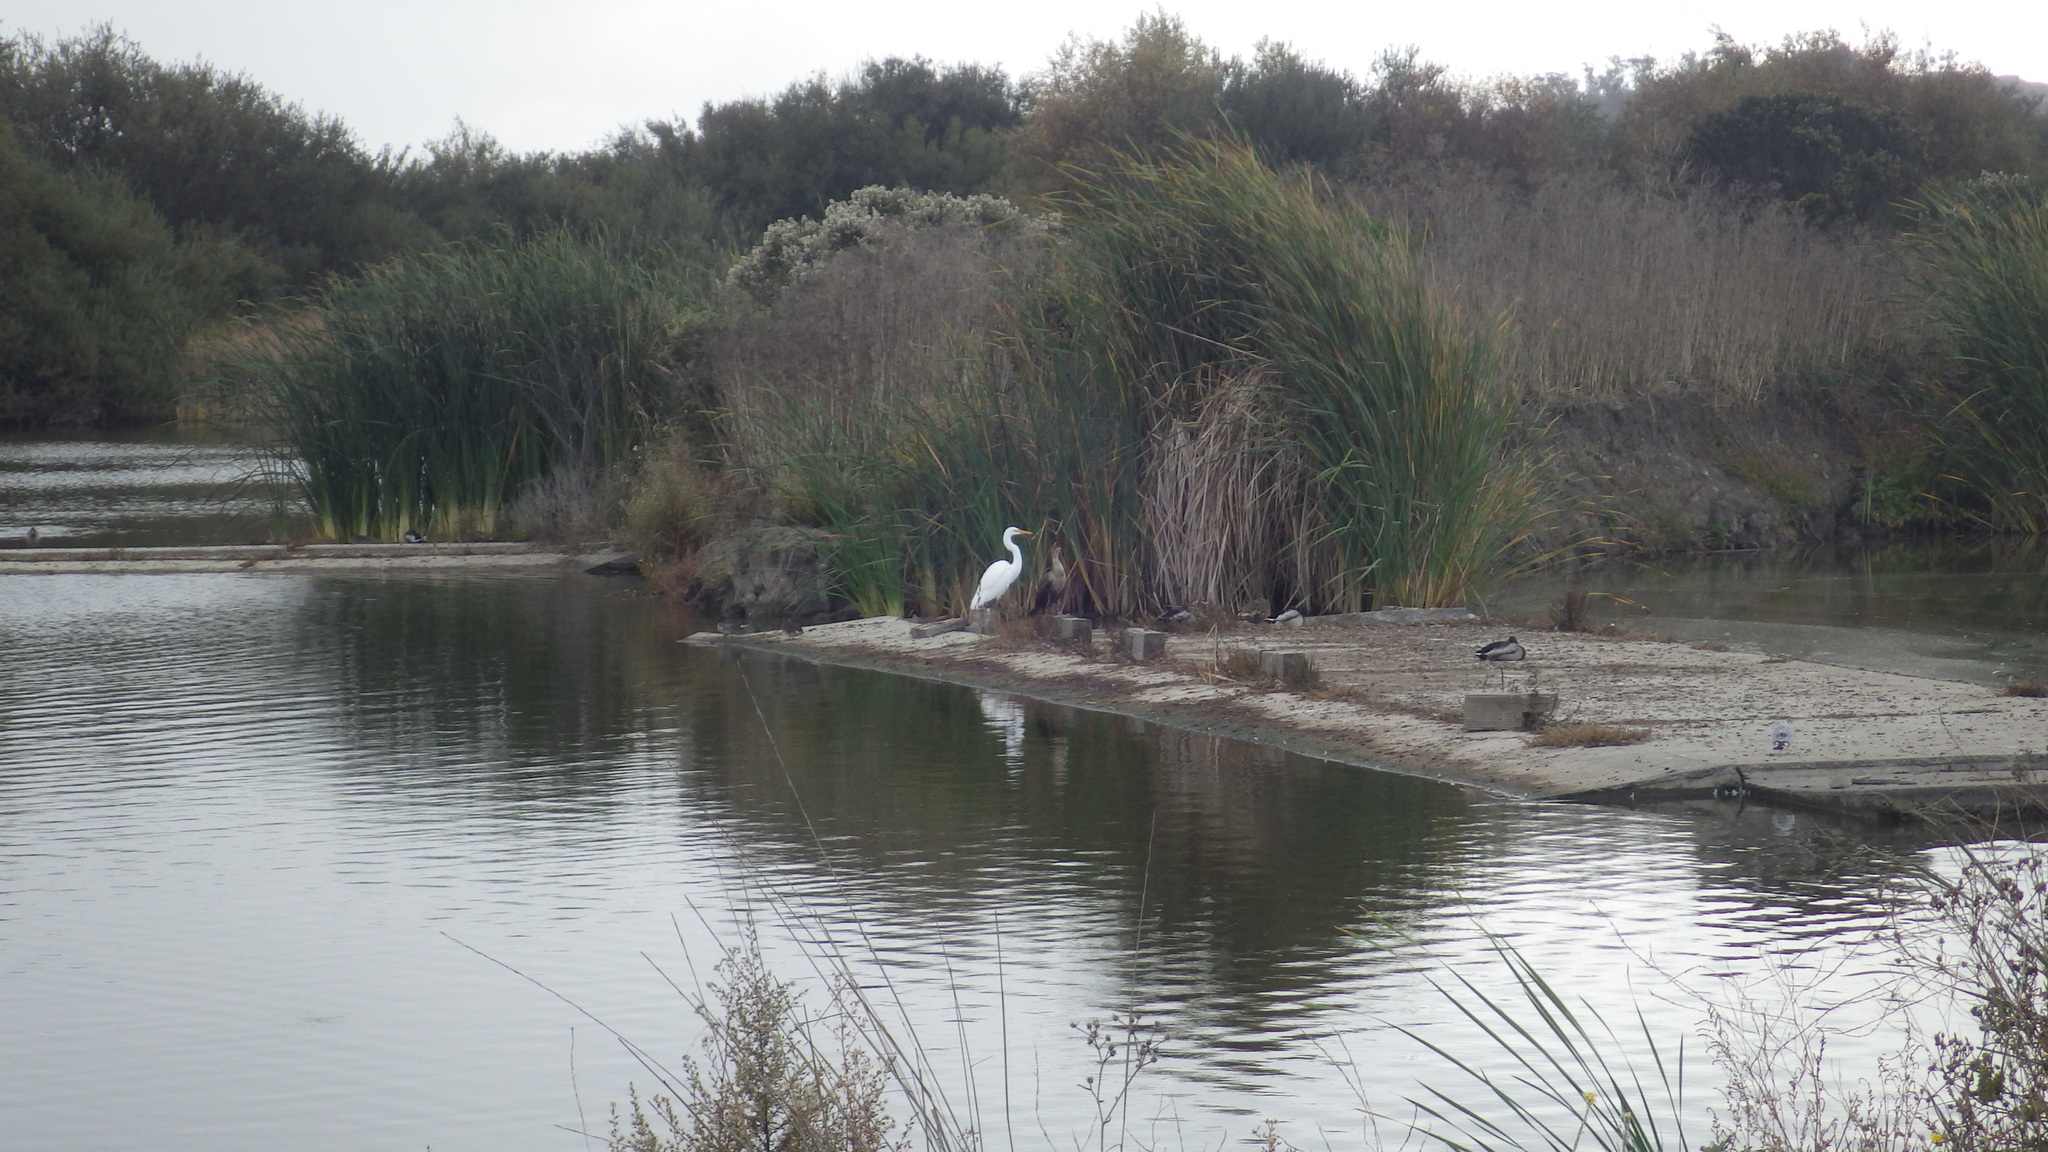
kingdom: Animalia
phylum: Chordata
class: Aves
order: Pelecaniformes
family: Ardeidae
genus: Ardea
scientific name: Ardea alba
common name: Great egret
